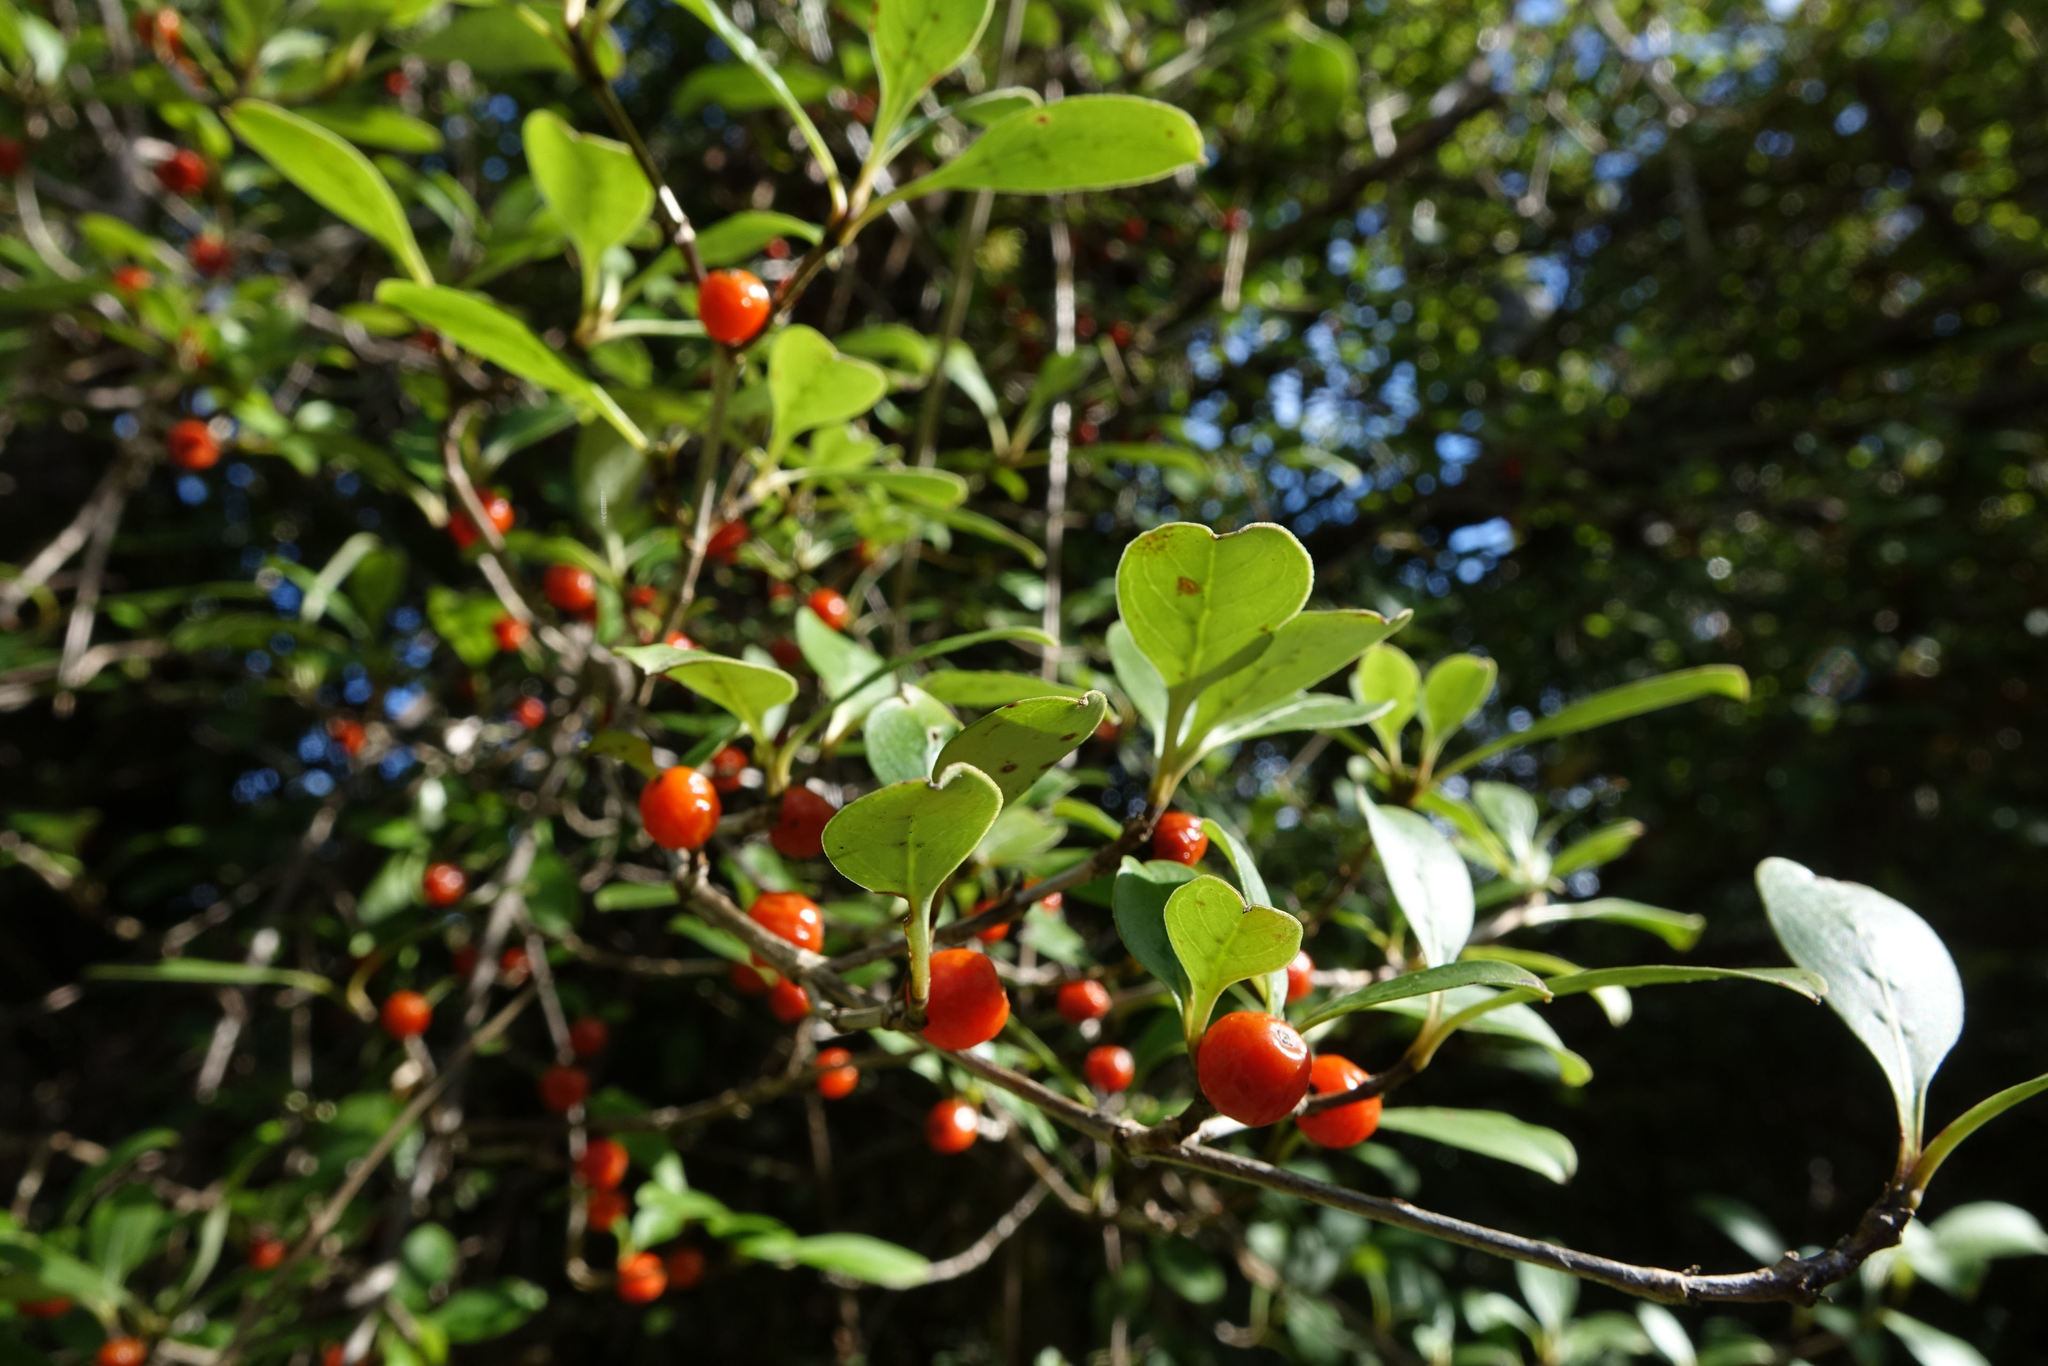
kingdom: Plantae
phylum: Tracheophyta
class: Magnoliopsida
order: Gentianales
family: Rubiaceae
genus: Coprosma
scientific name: Coprosma foetidissima
